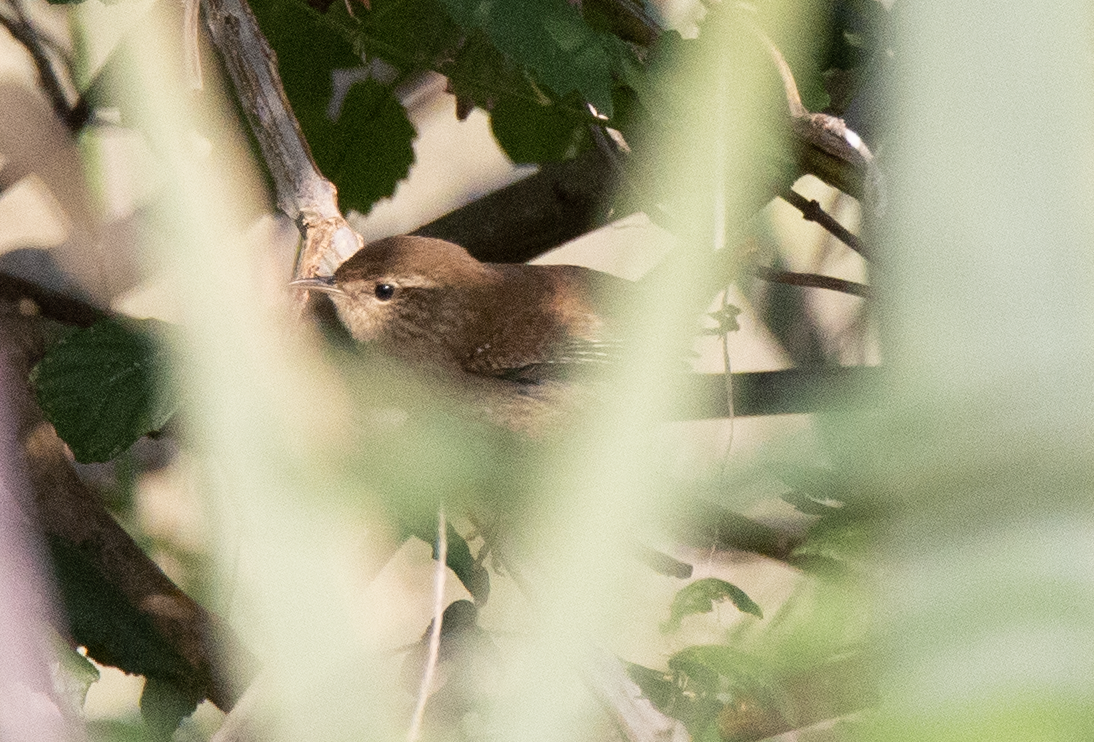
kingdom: Animalia
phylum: Chordata
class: Aves
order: Passeriformes
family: Troglodytidae
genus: Troglodytes
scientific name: Troglodytes troglodytes
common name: Eurasian wren
